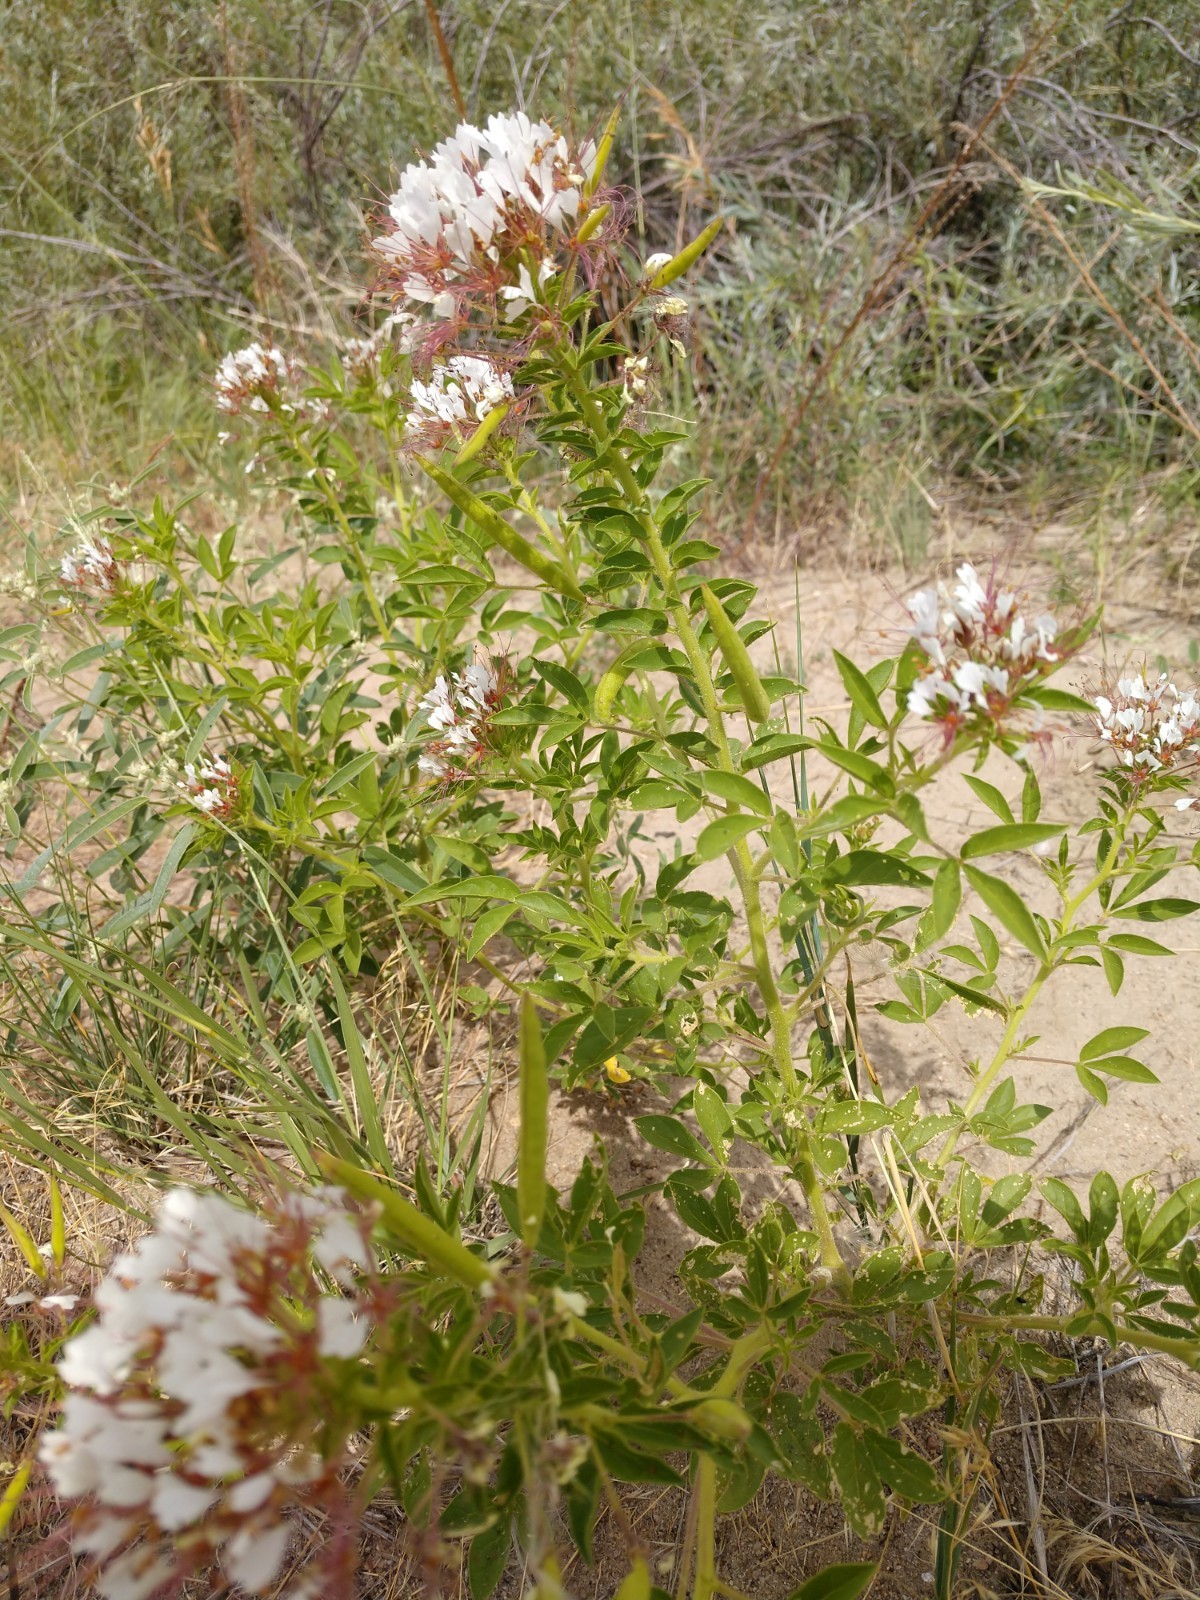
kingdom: Plantae
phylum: Tracheophyta
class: Magnoliopsida
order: Brassicales
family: Cleomaceae
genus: Polanisia
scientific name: Polanisia dodecandra
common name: Clammyweed
